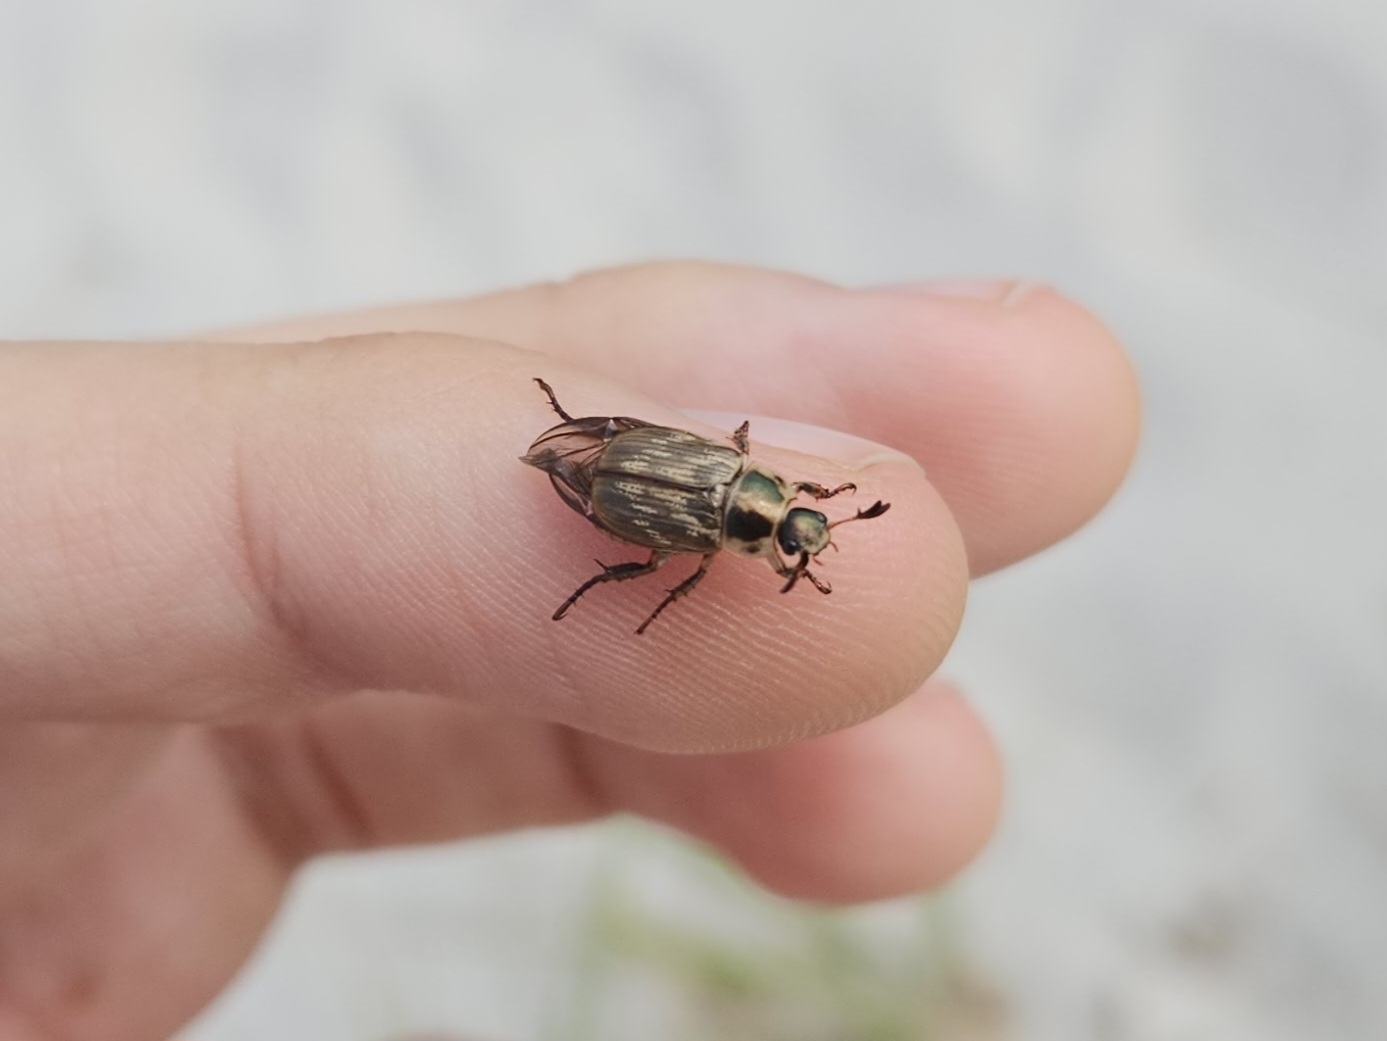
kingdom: Animalia
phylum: Arthropoda
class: Insecta
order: Coleoptera
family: Scarabaeidae
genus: Exomala
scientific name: Exomala orientalis
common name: Oriental beetle
